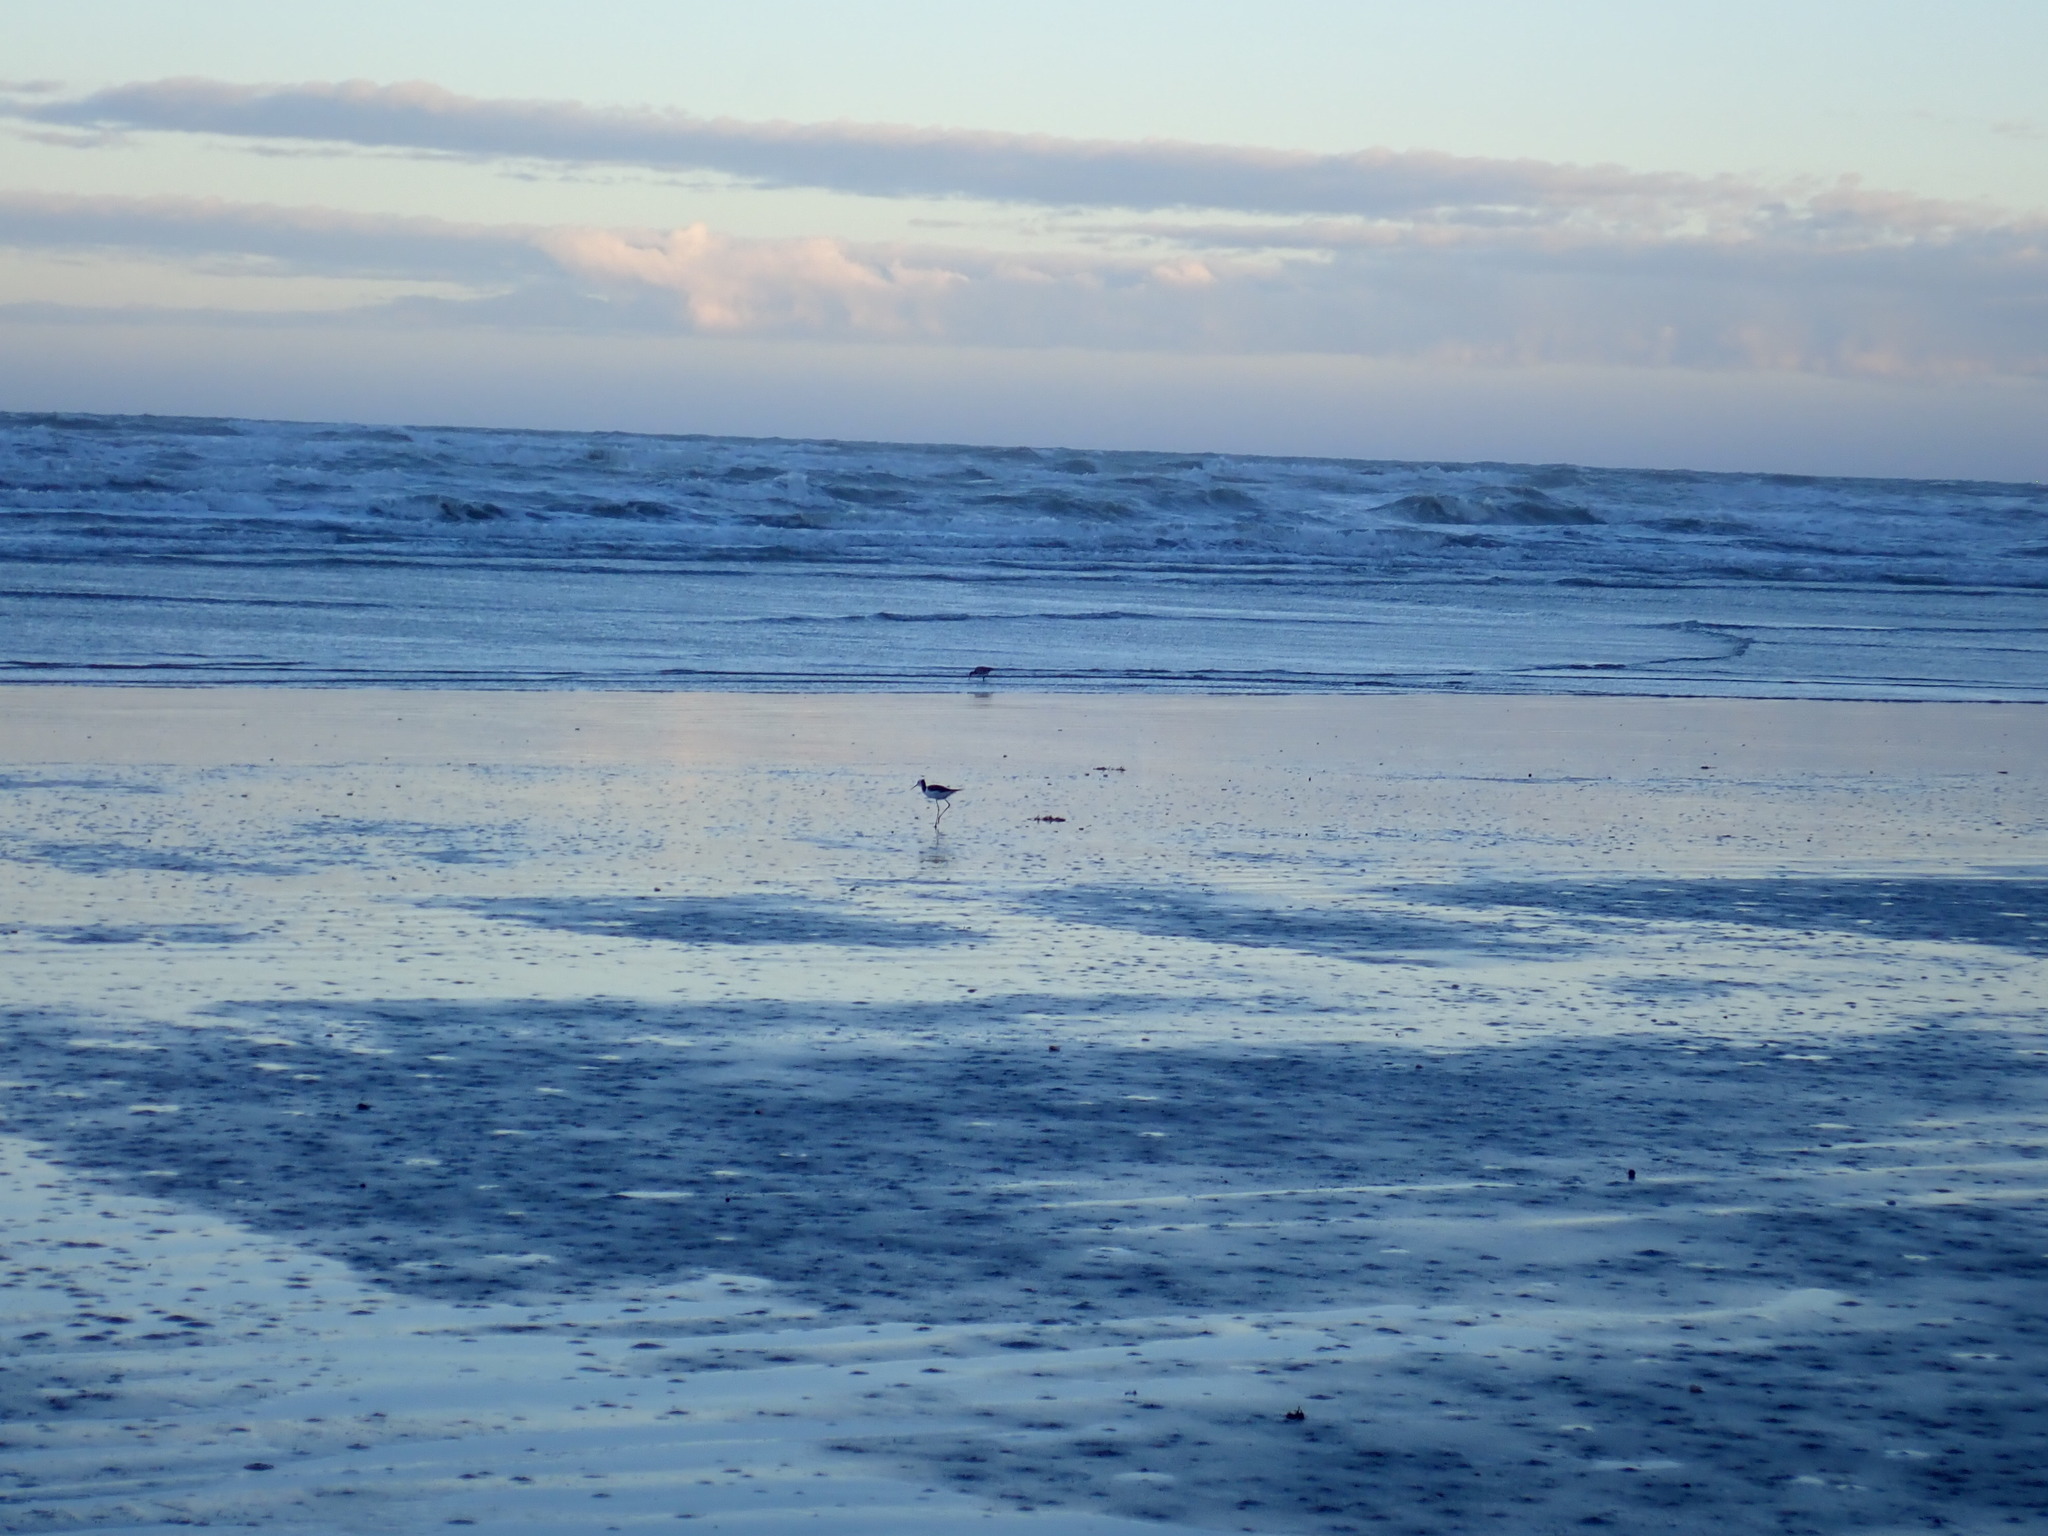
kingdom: Animalia
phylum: Chordata
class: Aves
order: Charadriiformes
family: Recurvirostridae
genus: Himantopus
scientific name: Himantopus leucocephalus
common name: White-headed stilt
